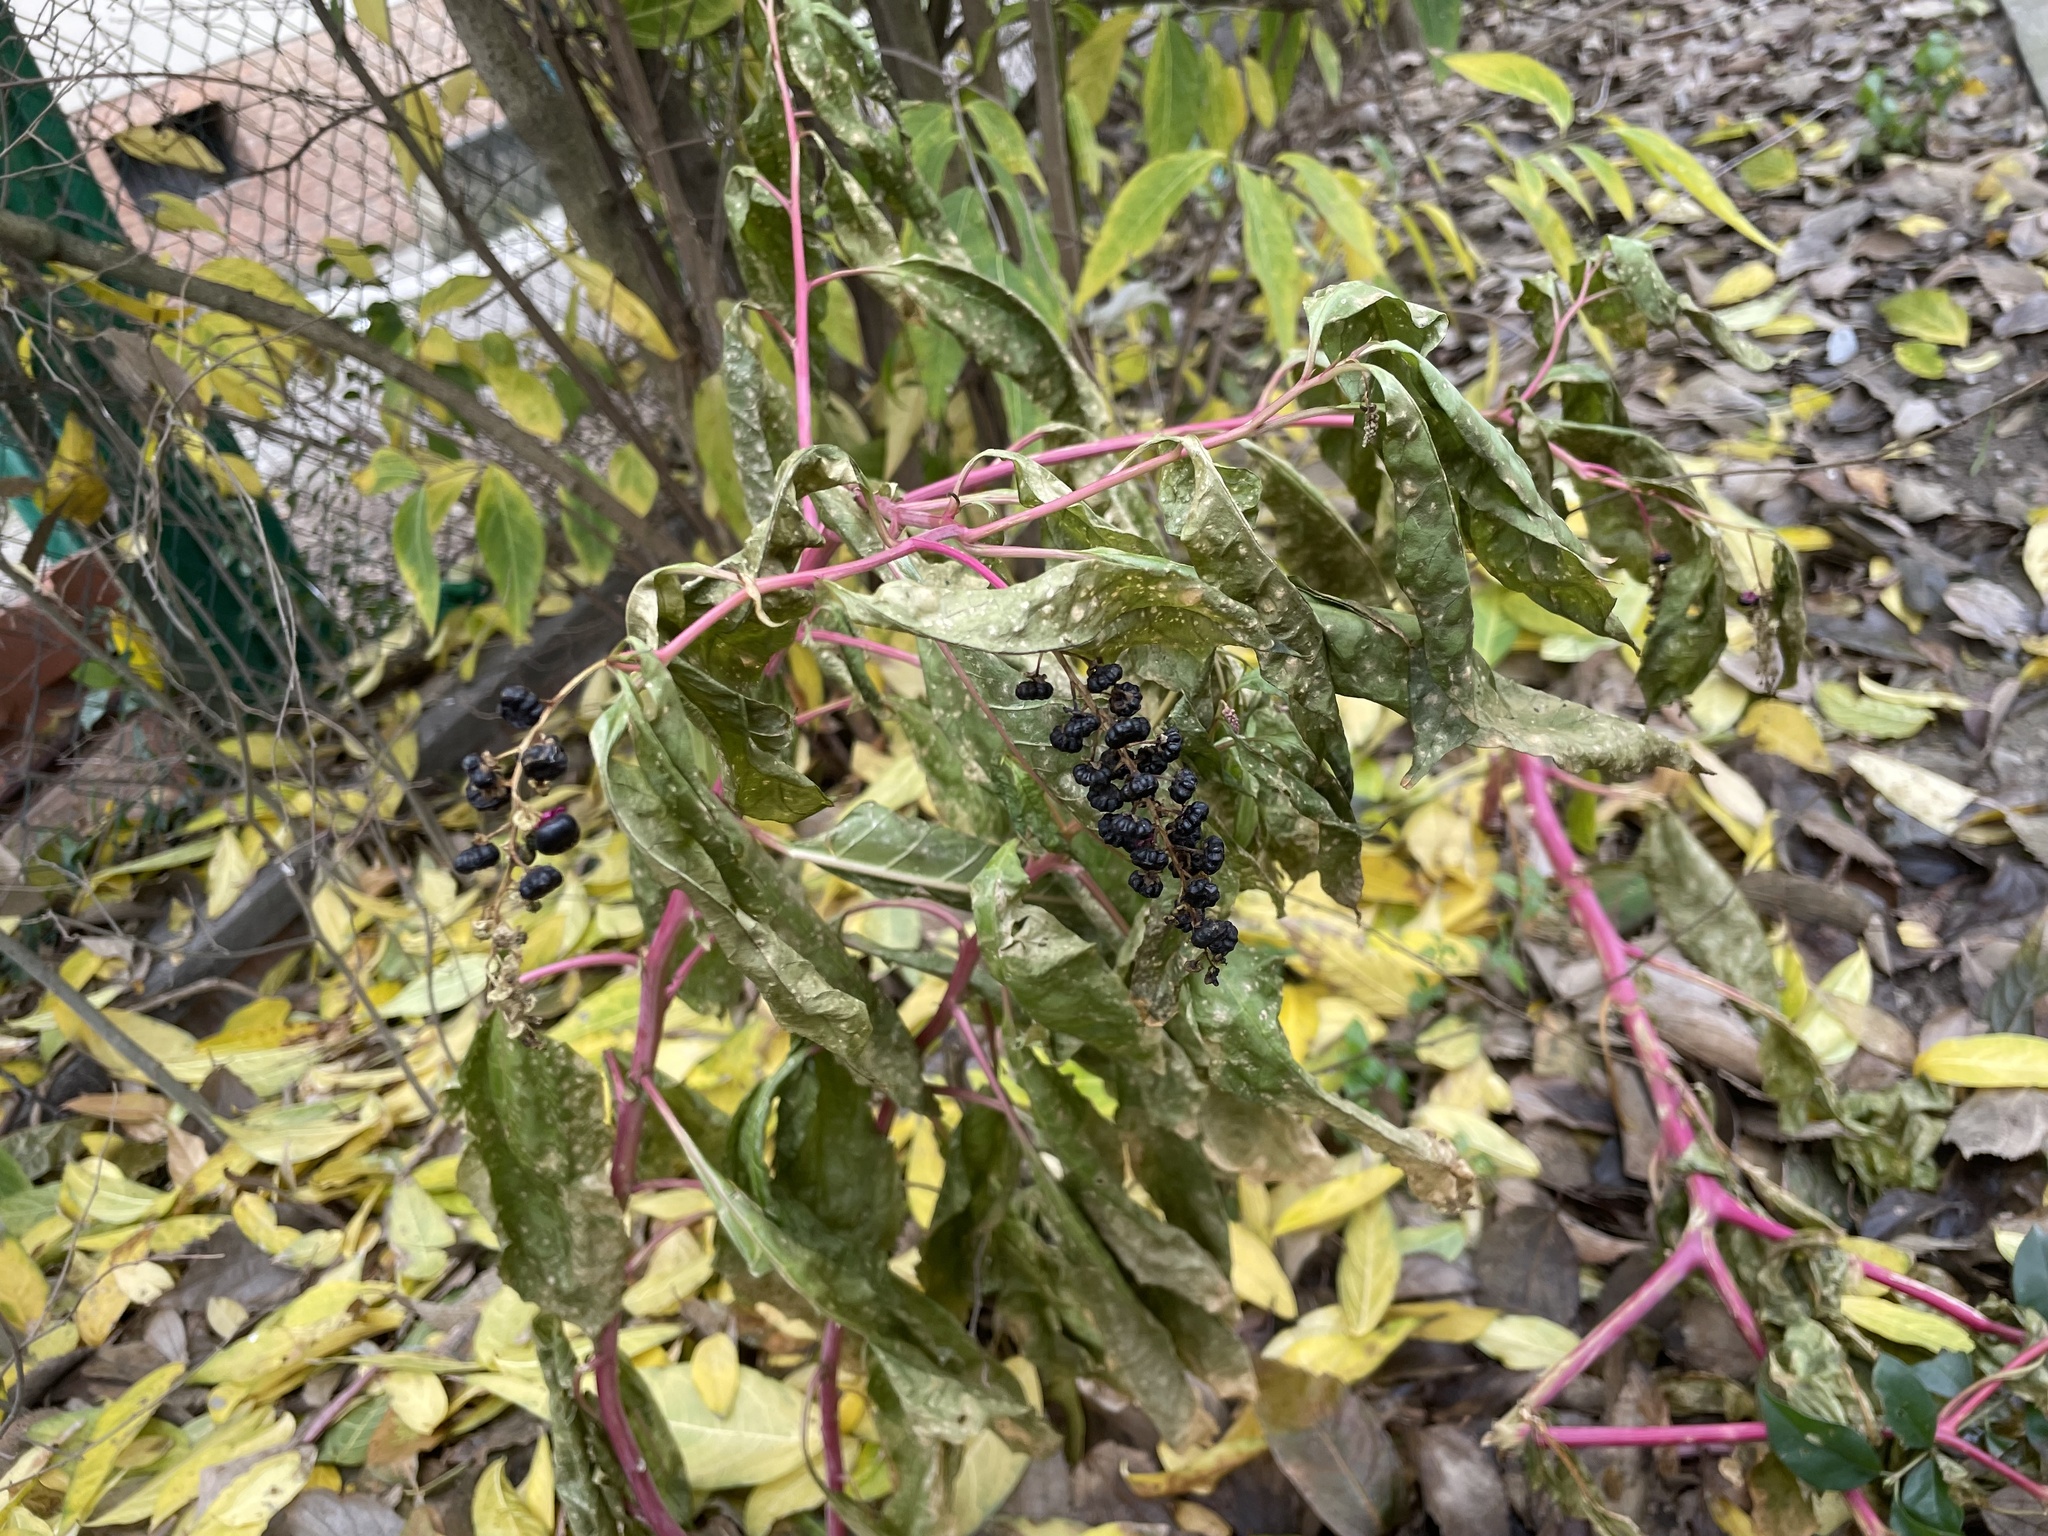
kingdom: Plantae
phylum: Tracheophyta
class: Magnoliopsida
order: Caryophyllales
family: Phytolaccaceae
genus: Phytolacca
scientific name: Phytolacca americana
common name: American pokeweed
